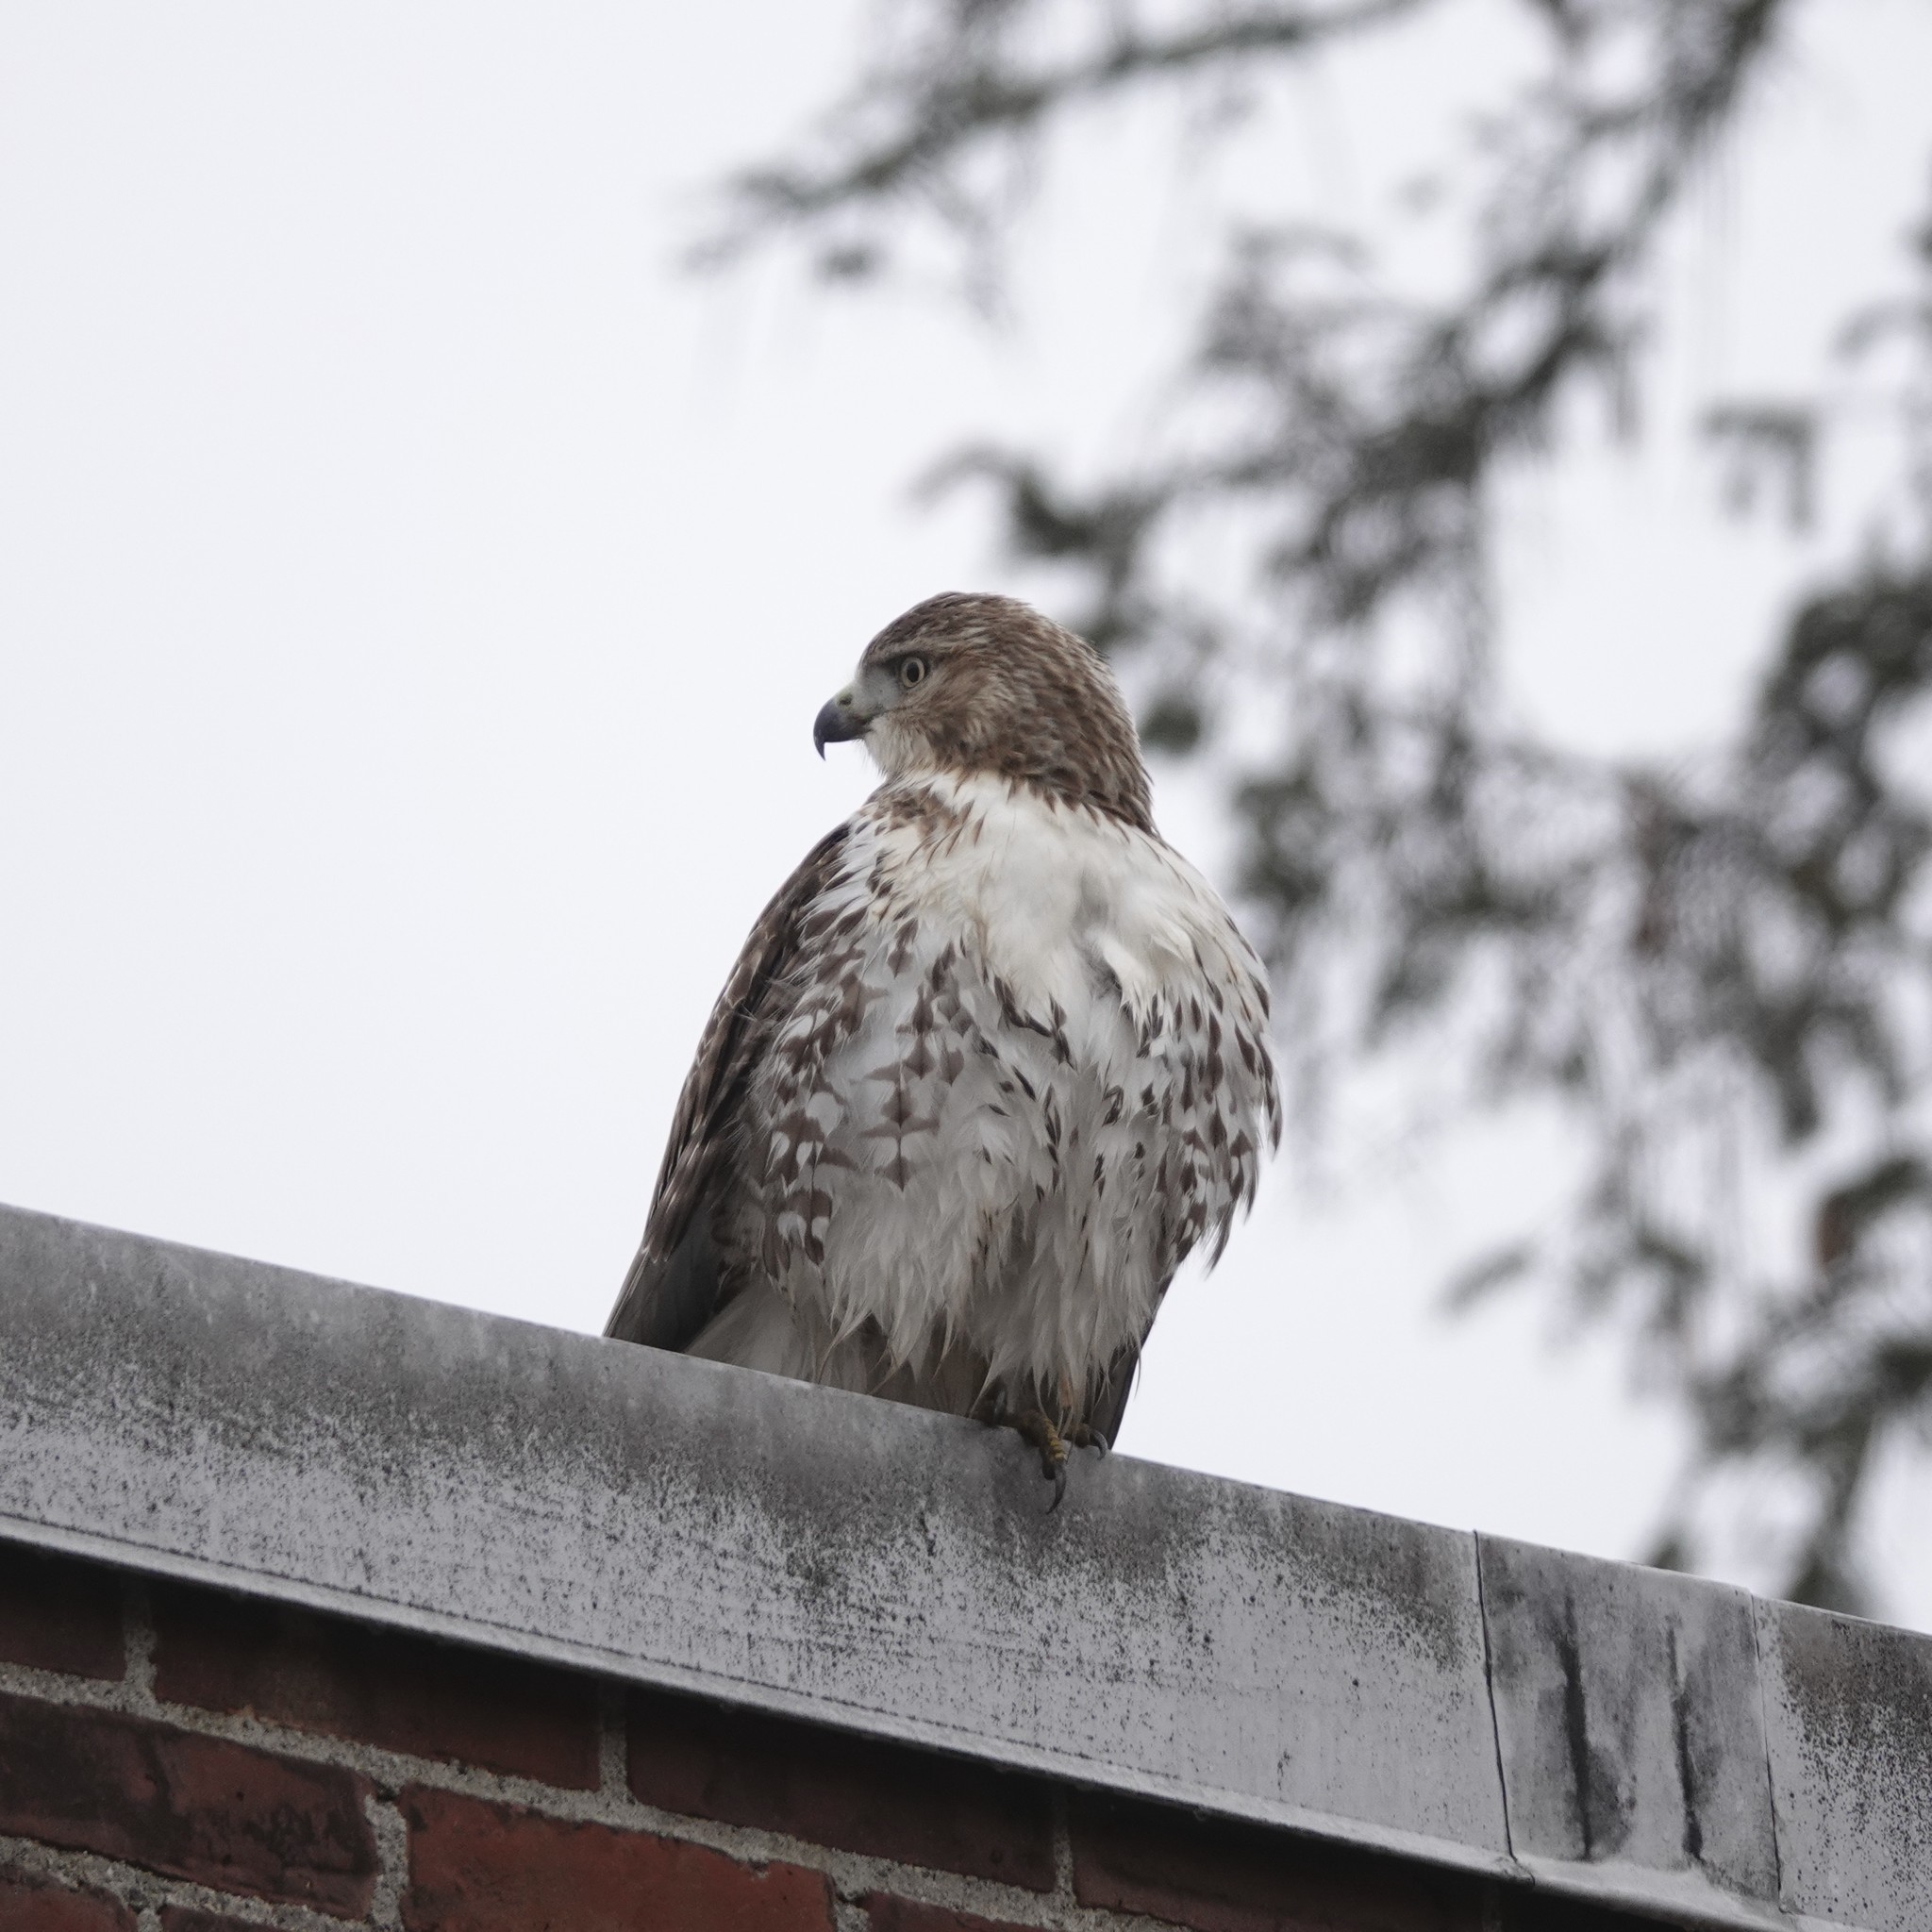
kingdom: Animalia
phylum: Chordata
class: Aves
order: Accipitriformes
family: Accipitridae
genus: Buteo
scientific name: Buteo jamaicensis
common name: Red-tailed hawk
